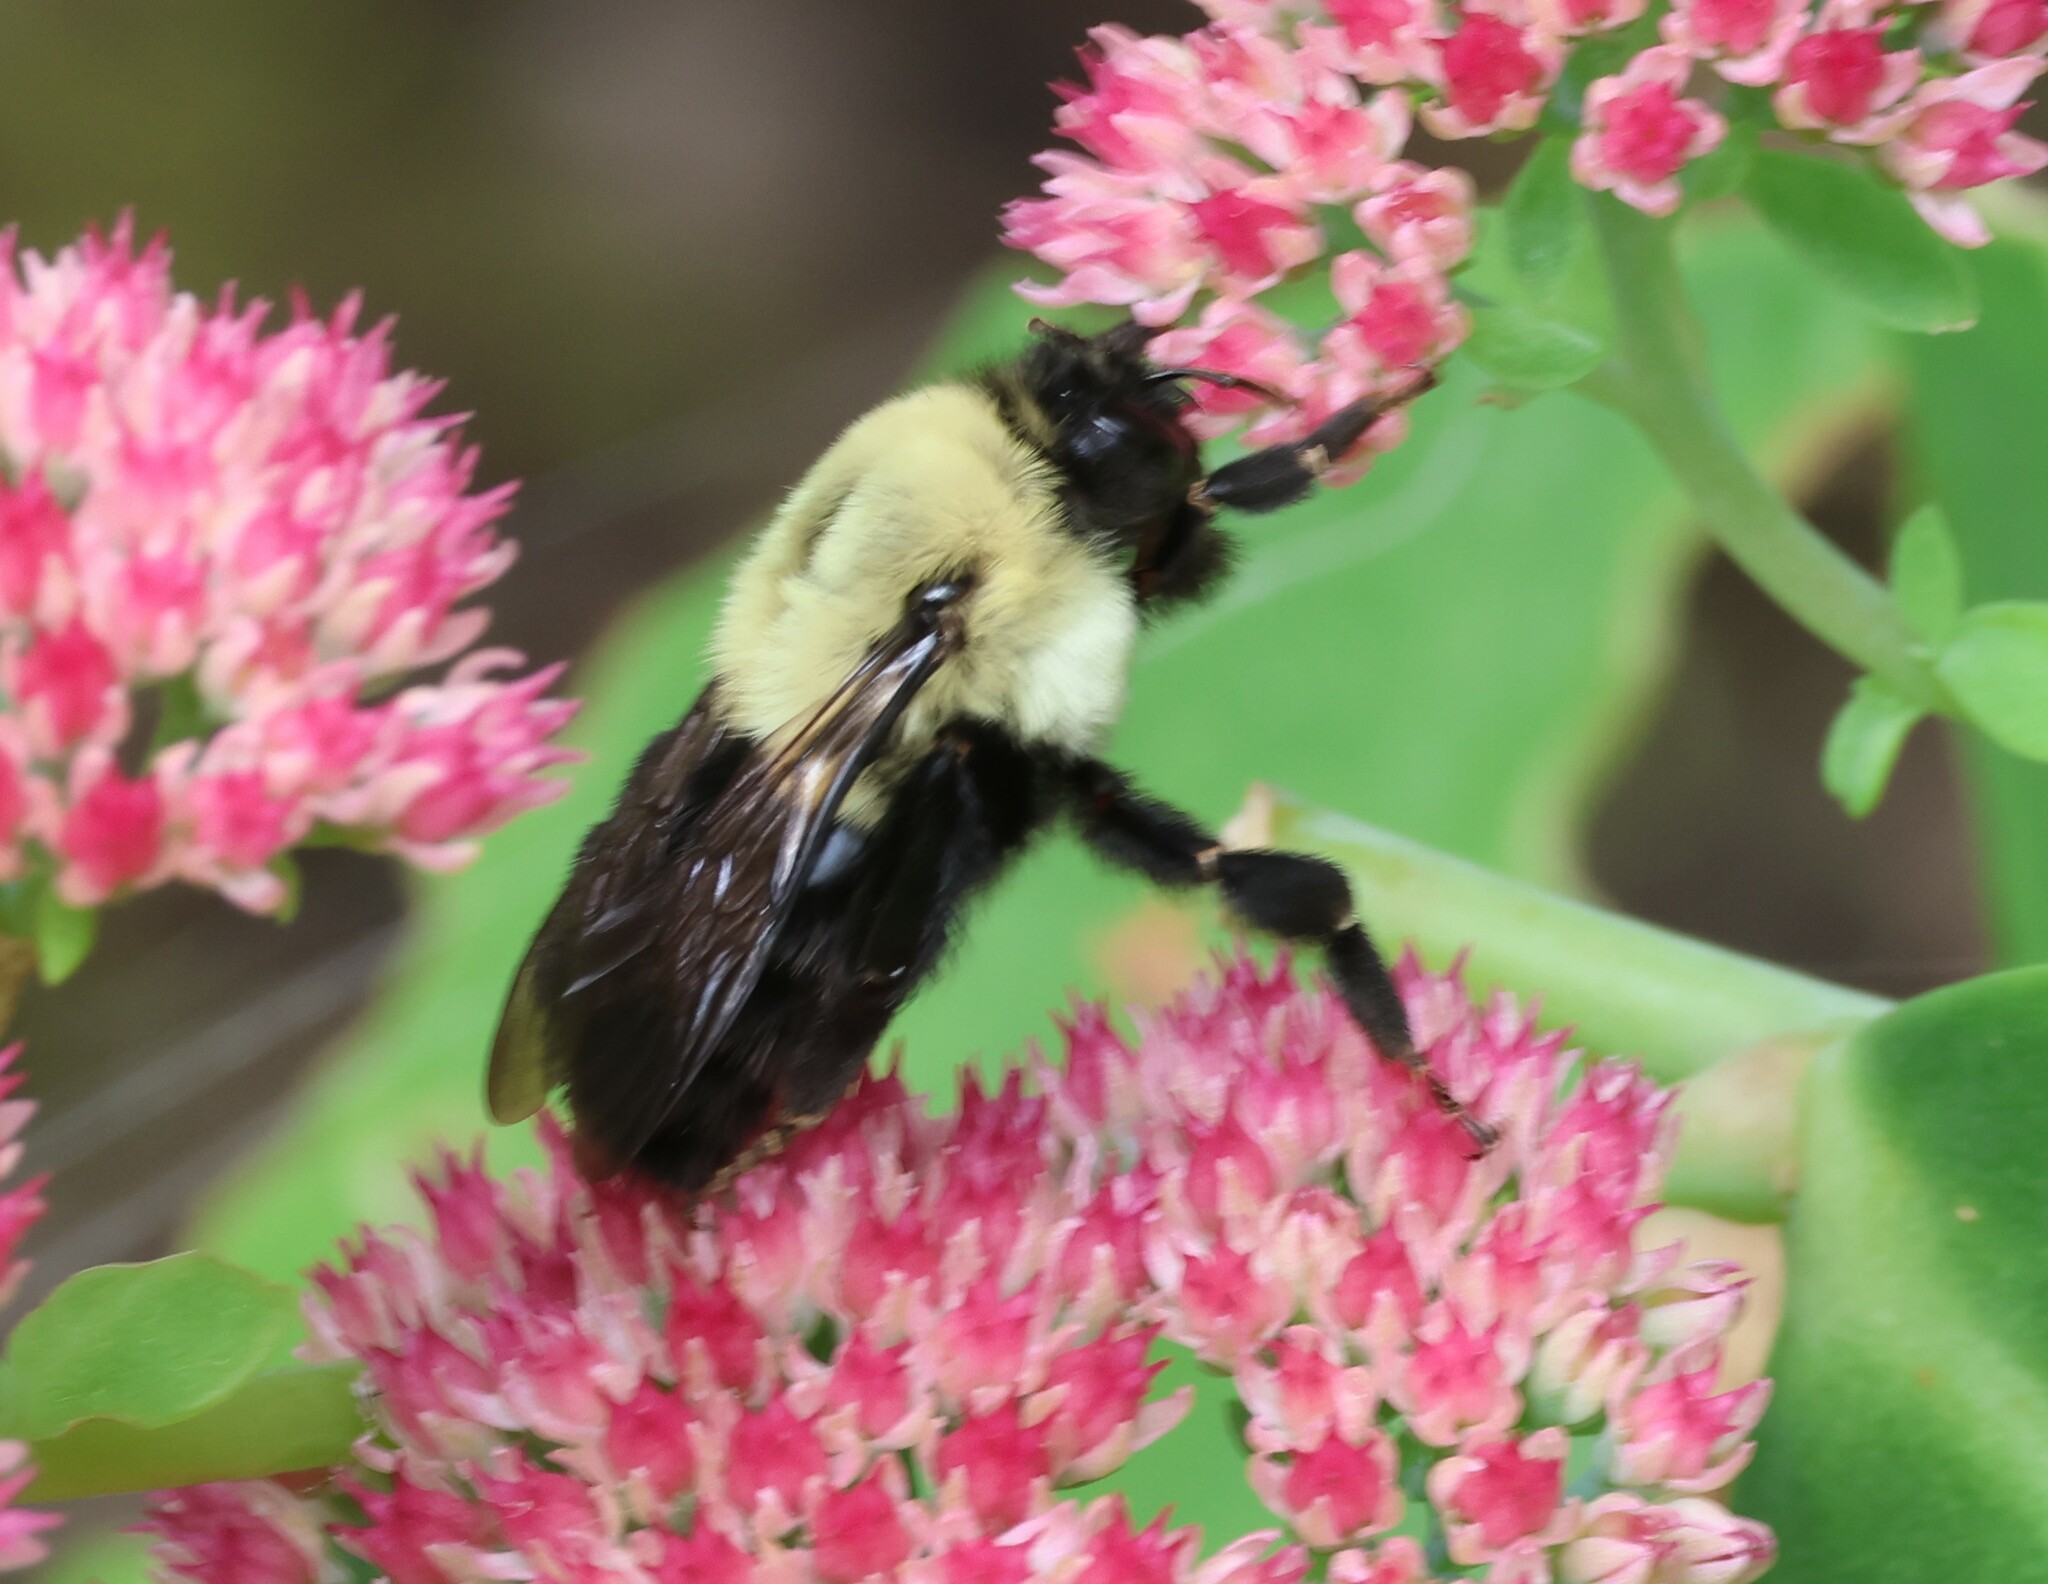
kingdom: Animalia
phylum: Arthropoda
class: Insecta
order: Hymenoptera
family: Apidae
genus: Bombus
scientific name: Bombus impatiens
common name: Common eastern bumble bee
